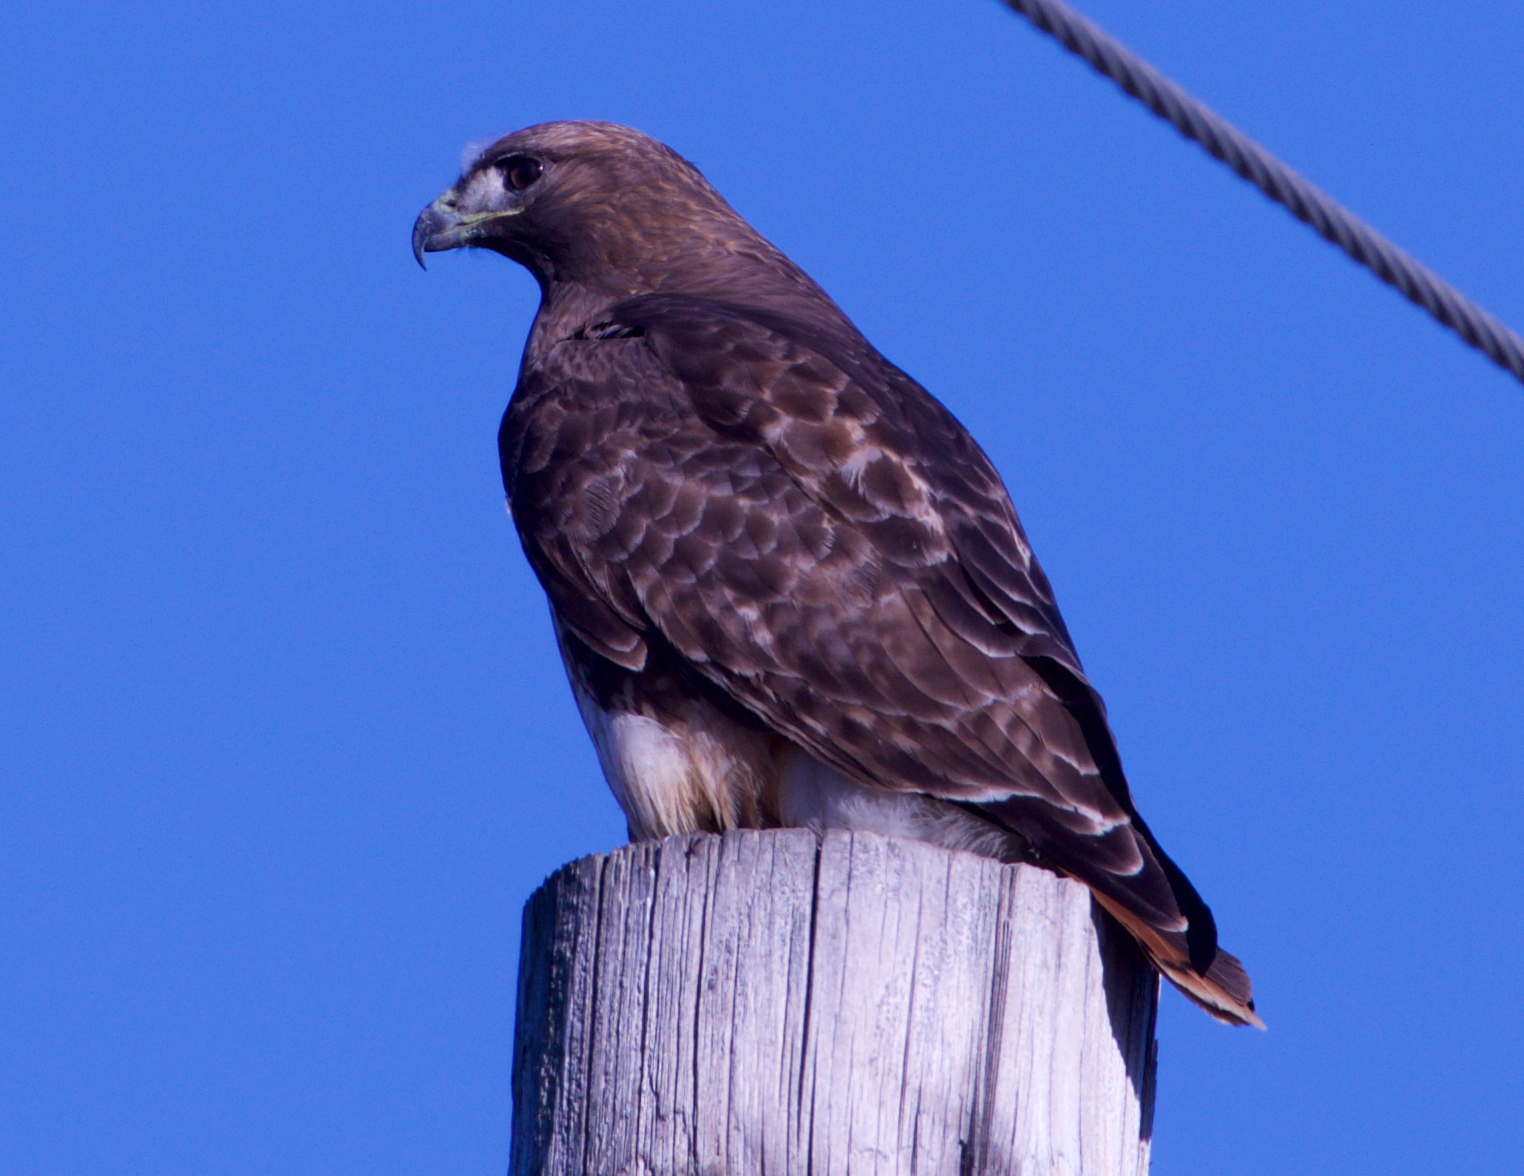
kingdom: Animalia
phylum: Chordata
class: Aves
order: Accipitriformes
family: Accipitridae
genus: Buteo
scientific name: Buteo jamaicensis
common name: Red-tailed hawk
